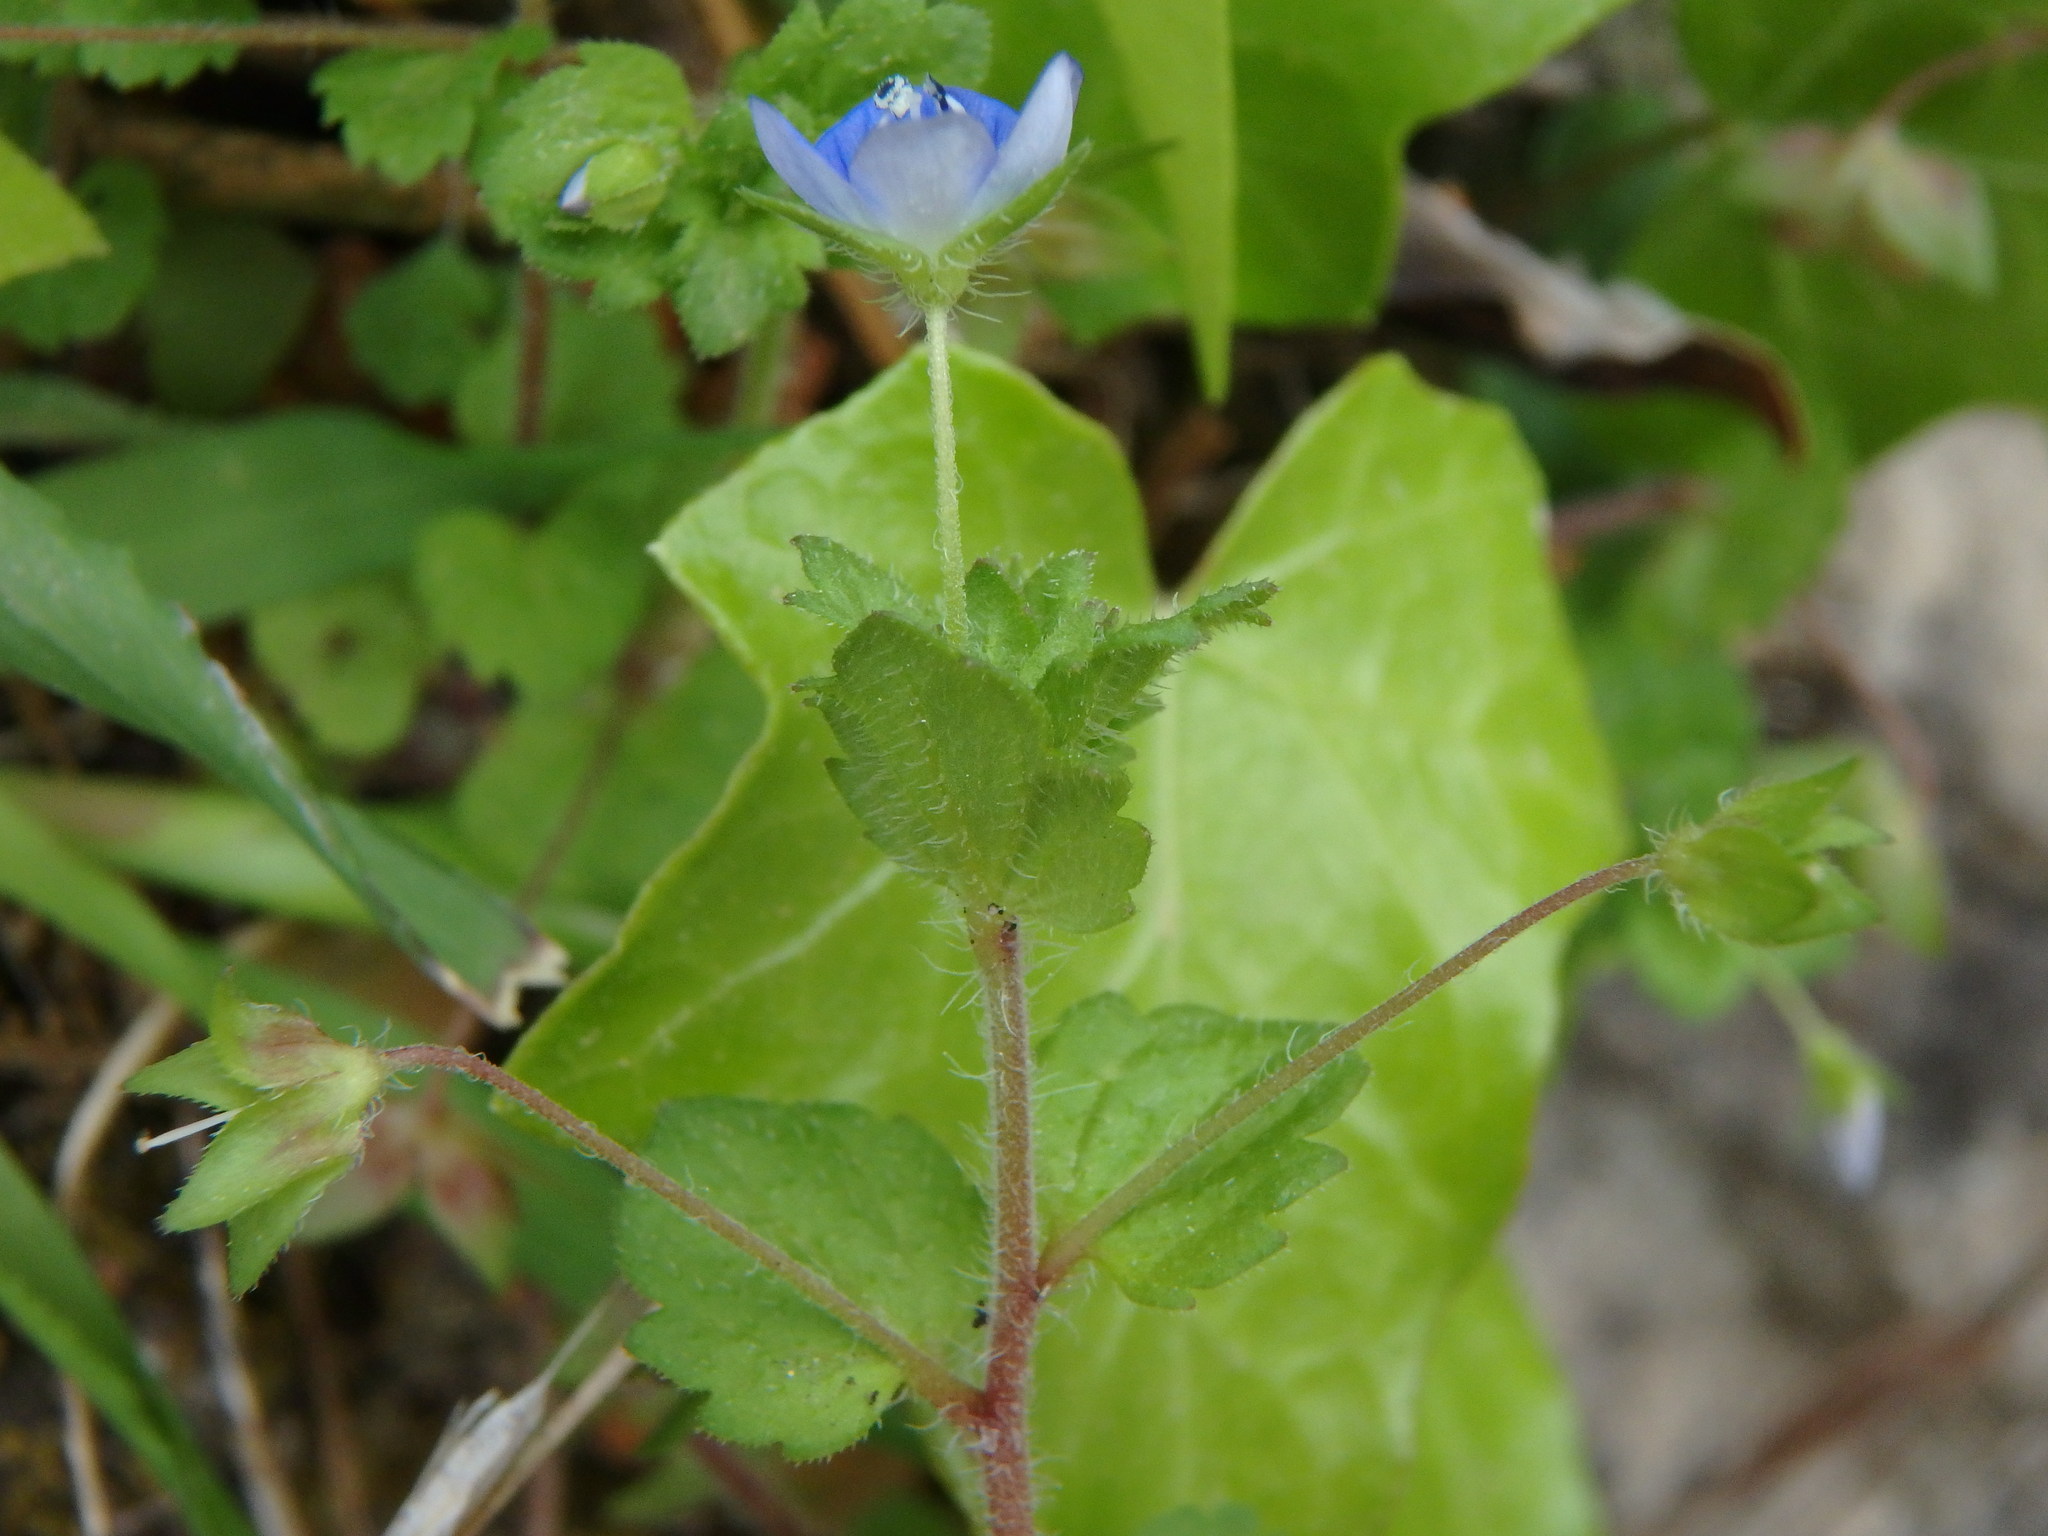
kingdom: Plantae
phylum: Tracheophyta
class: Magnoliopsida
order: Lamiales
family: Plantaginaceae
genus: Veronica
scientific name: Veronica persica
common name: Common field-speedwell
